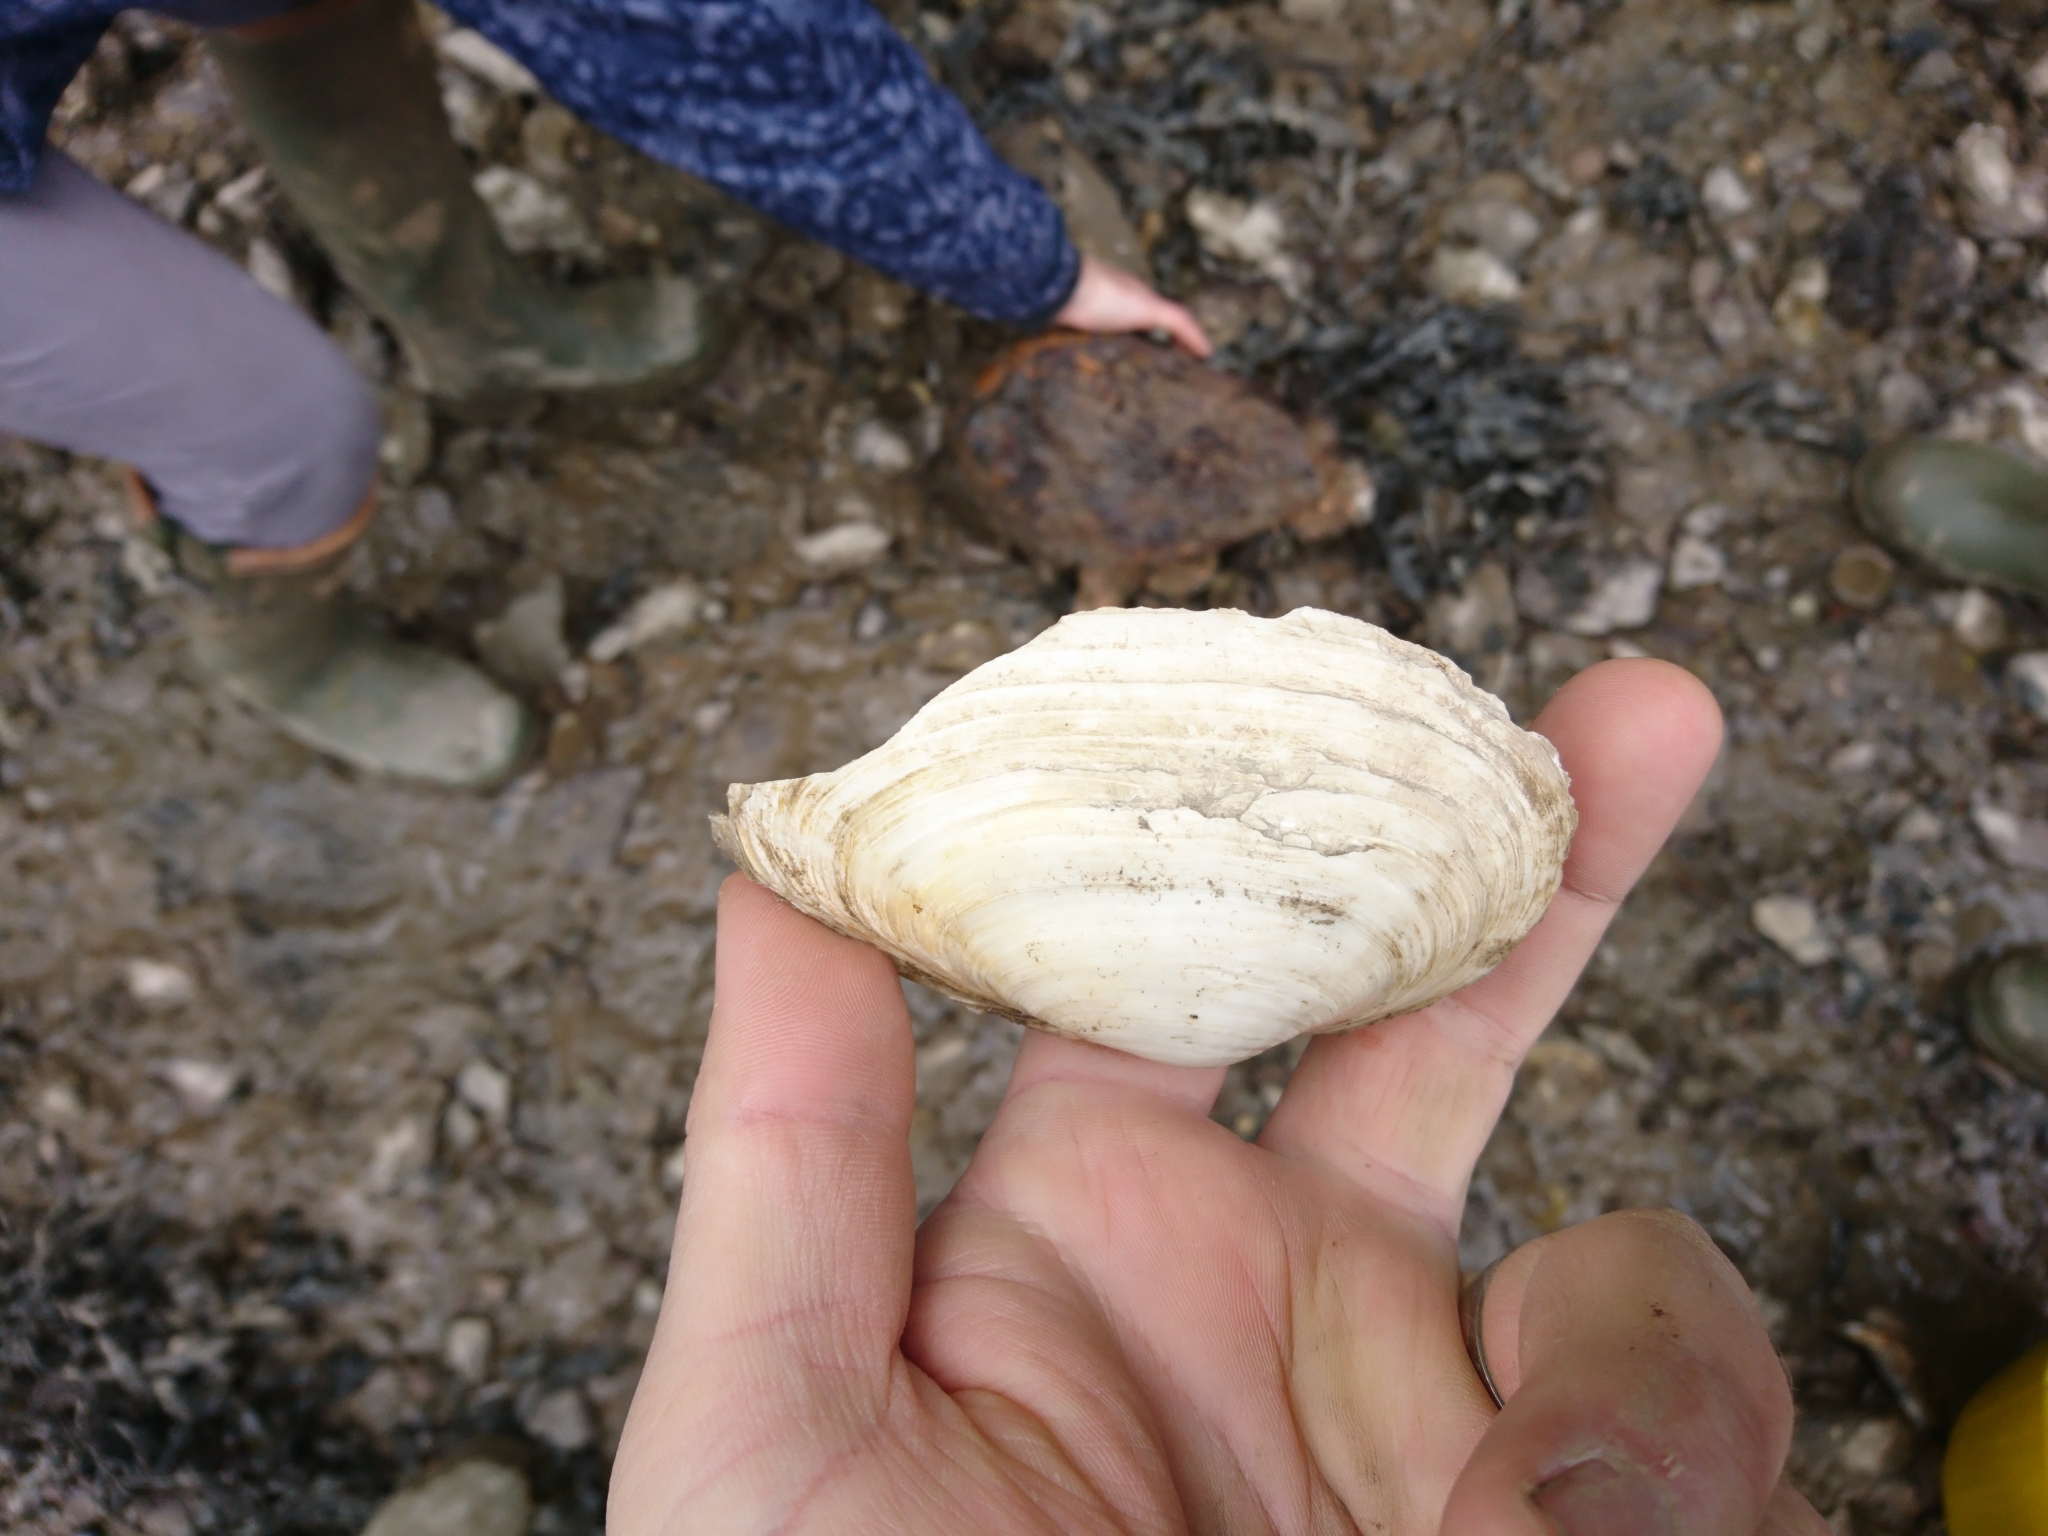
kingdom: Animalia
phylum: Mollusca
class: Bivalvia
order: Myida
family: Myidae
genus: Mya
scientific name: Mya arenaria
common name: Soft-shelled clam
